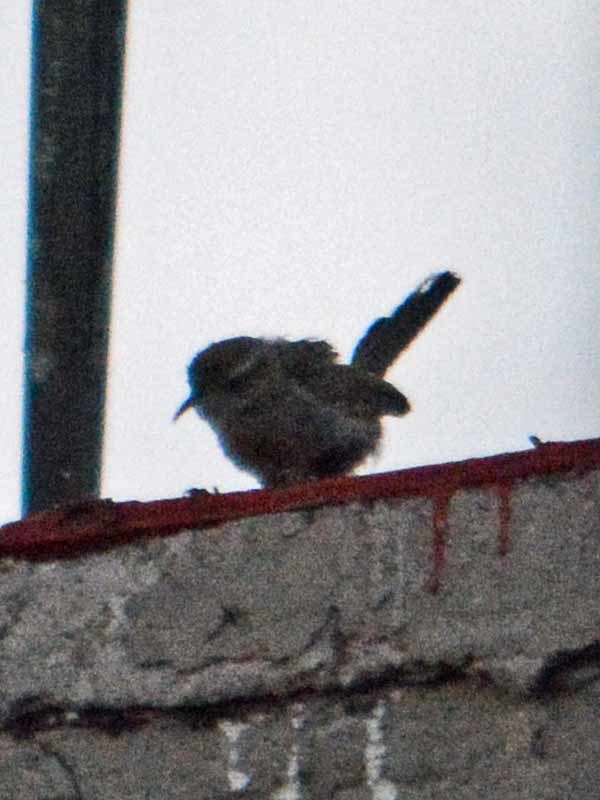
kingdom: Animalia
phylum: Chordata
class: Aves
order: Passeriformes
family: Troglodytidae
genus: Thryomanes
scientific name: Thryomanes bewickii
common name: Bewick's wren
